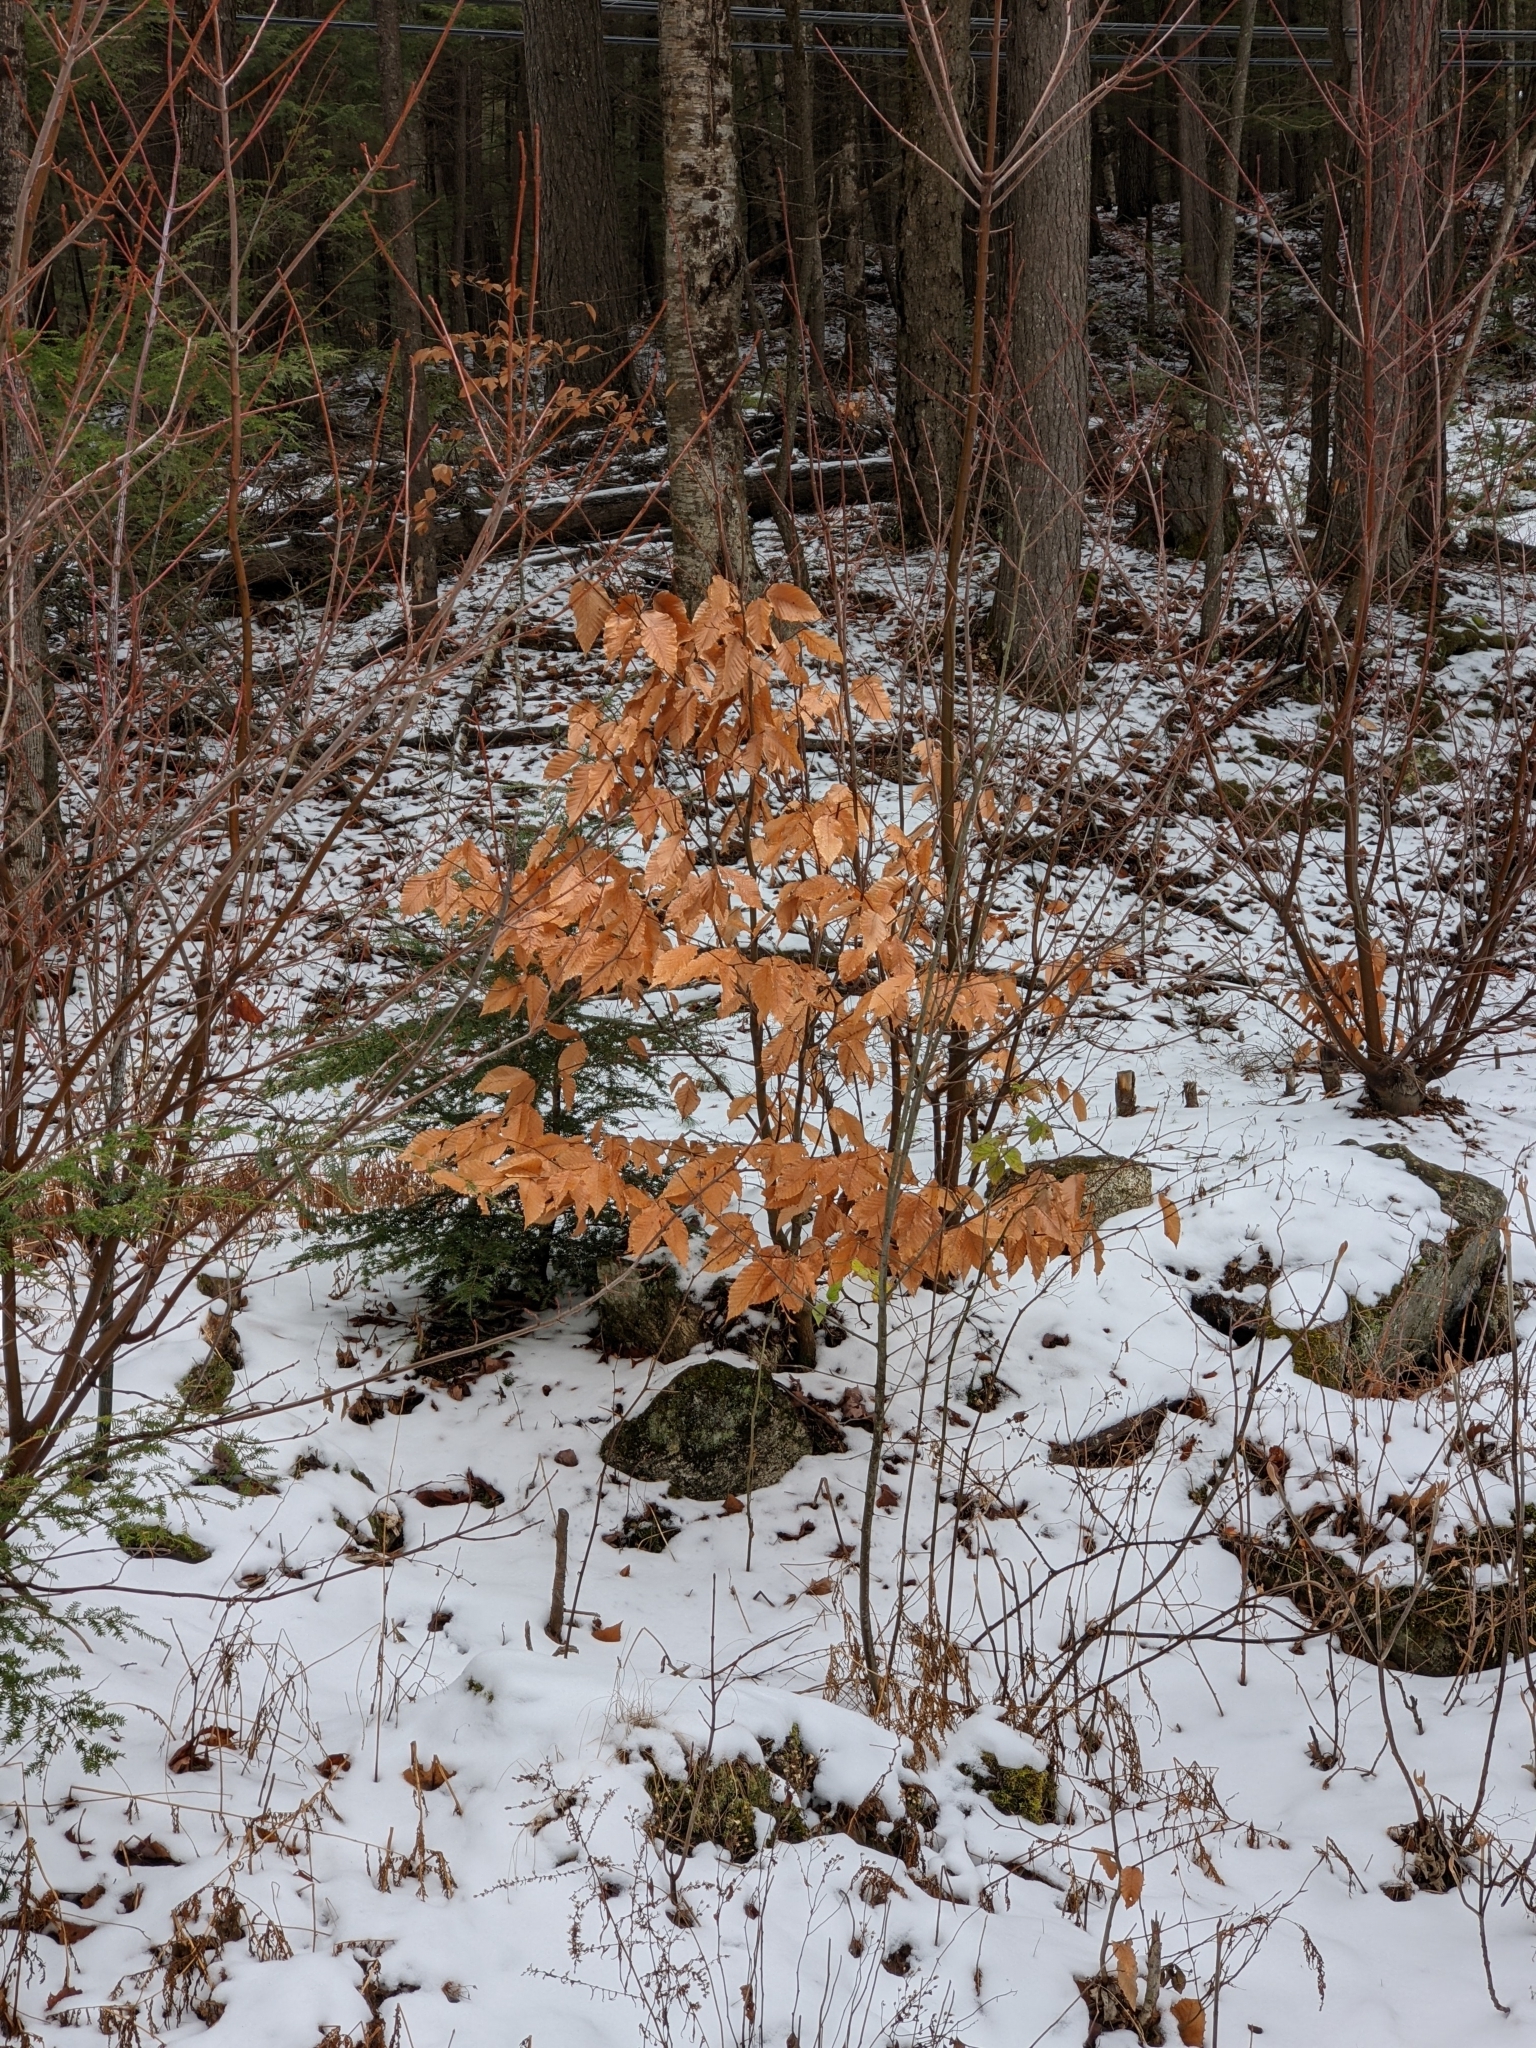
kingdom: Plantae
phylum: Tracheophyta
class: Magnoliopsida
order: Fagales
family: Fagaceae
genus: Fagus
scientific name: Fagus grandifolia
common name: American beech
